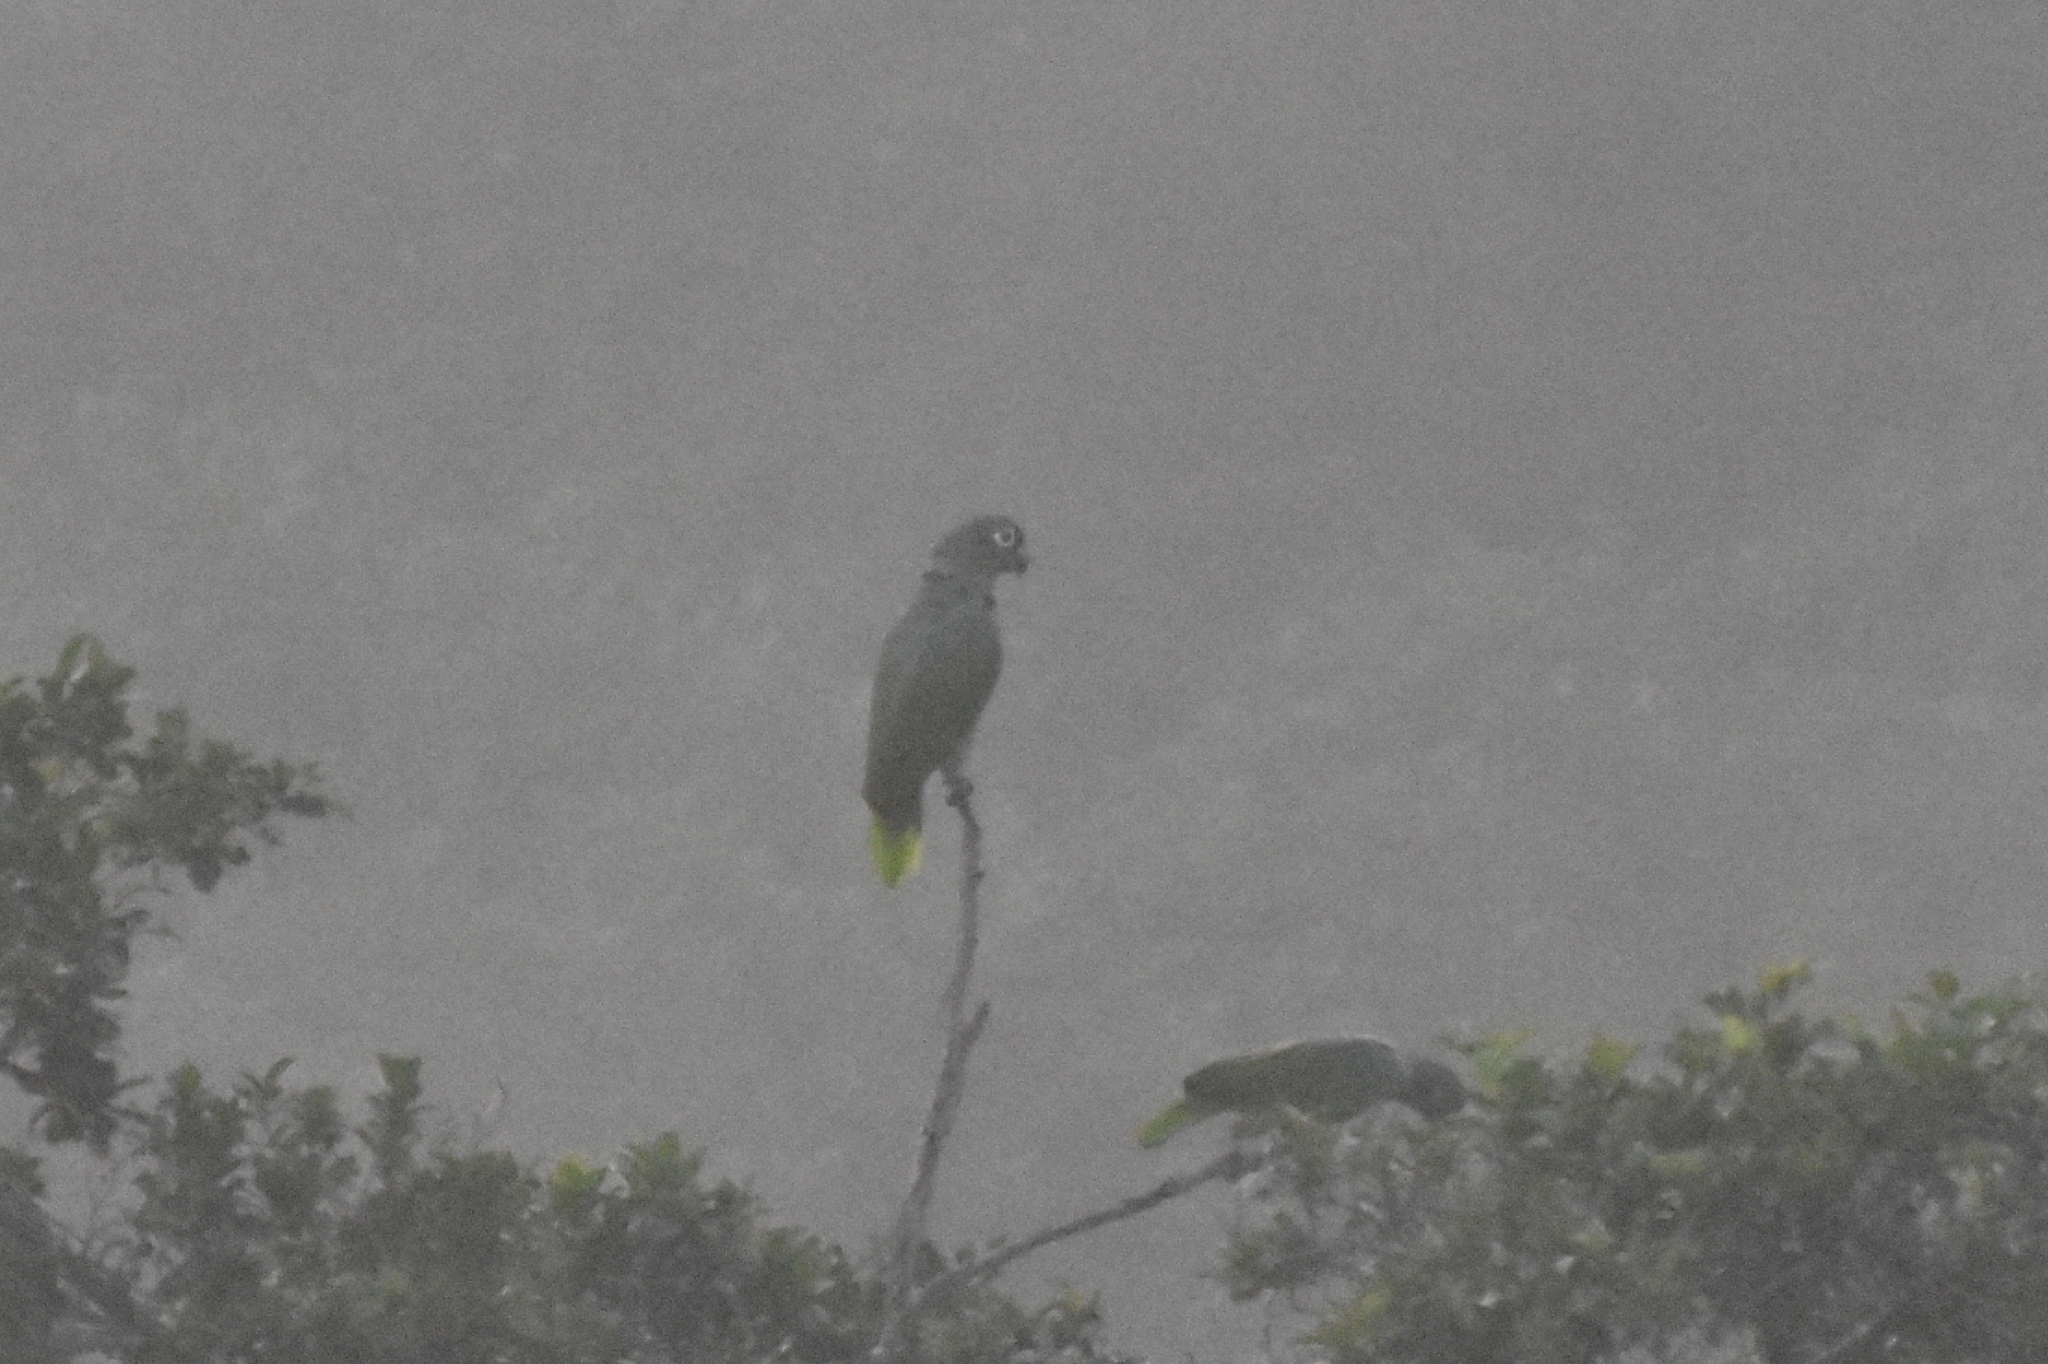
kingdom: Animalia
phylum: Chordata
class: Aves
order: Psittaciformes
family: Psittacidae
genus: Amazona
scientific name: Amazona farinosa
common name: Mealy parrot
